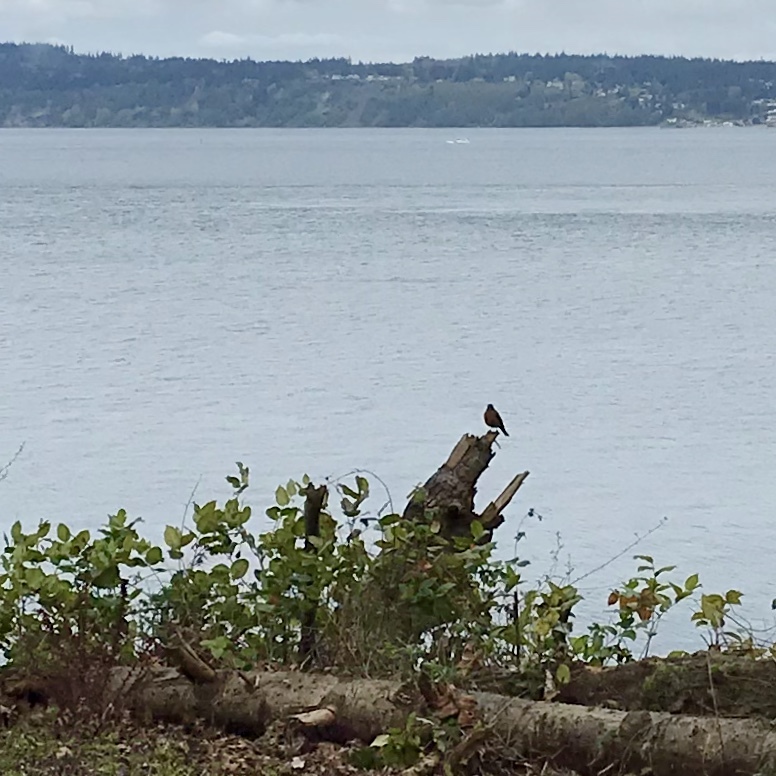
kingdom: Animalia
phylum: Chordata
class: Aves
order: Passeriformes
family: Turdidae
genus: Turdus
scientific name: Turdus migratorius
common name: American robin
